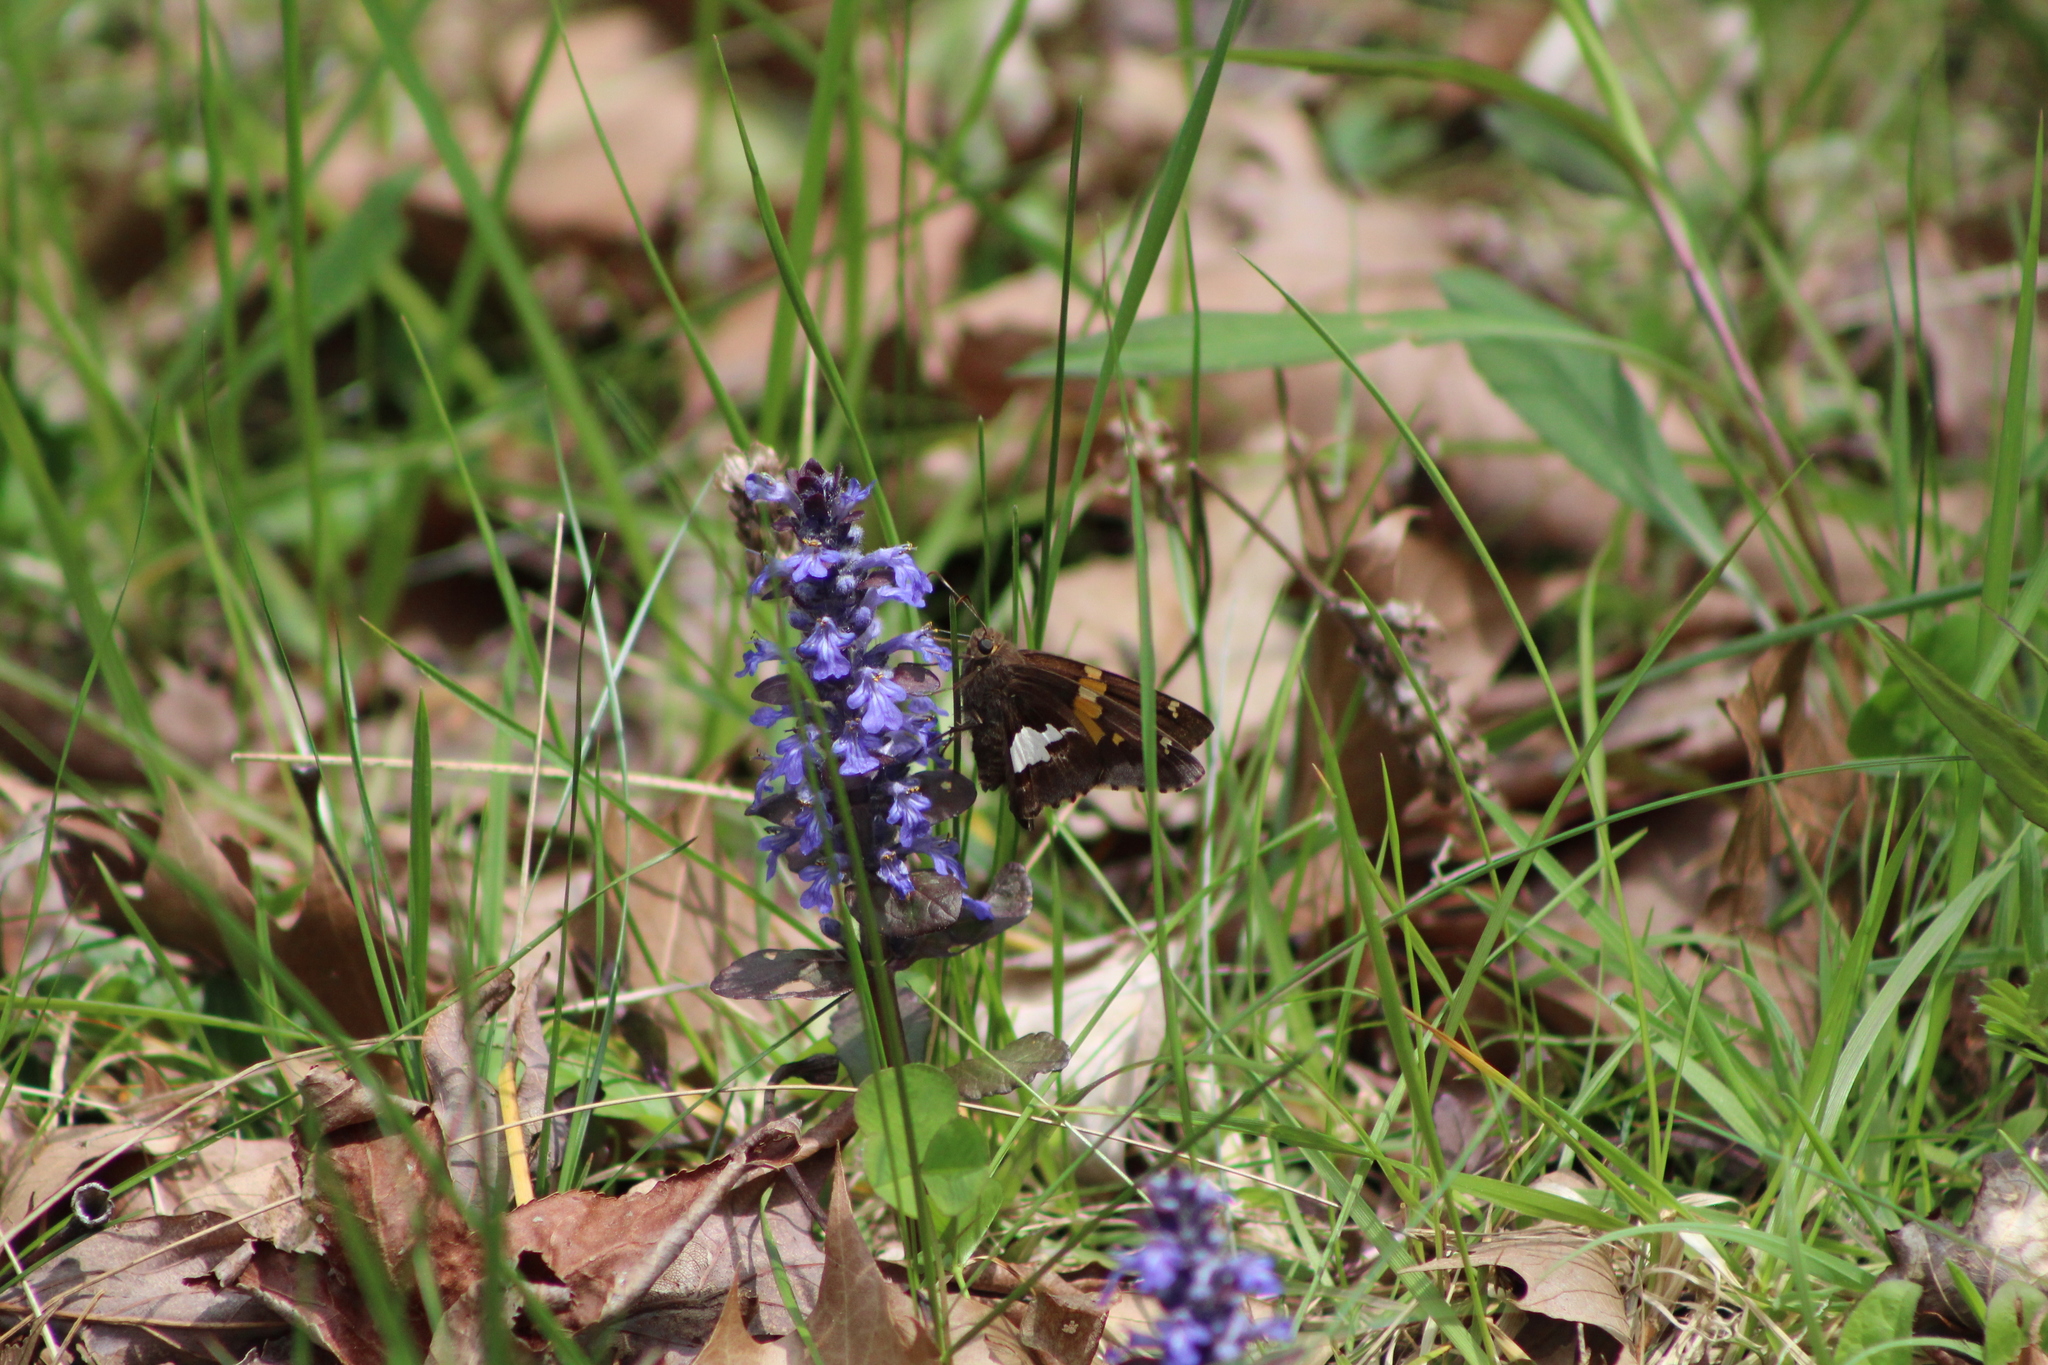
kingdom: Animalia
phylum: Arthropoda
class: Insecta
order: Lepidoptera
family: Hesperiidae
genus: Epargyreus
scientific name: Epargyreus clarus
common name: Silver-spotted skipper
